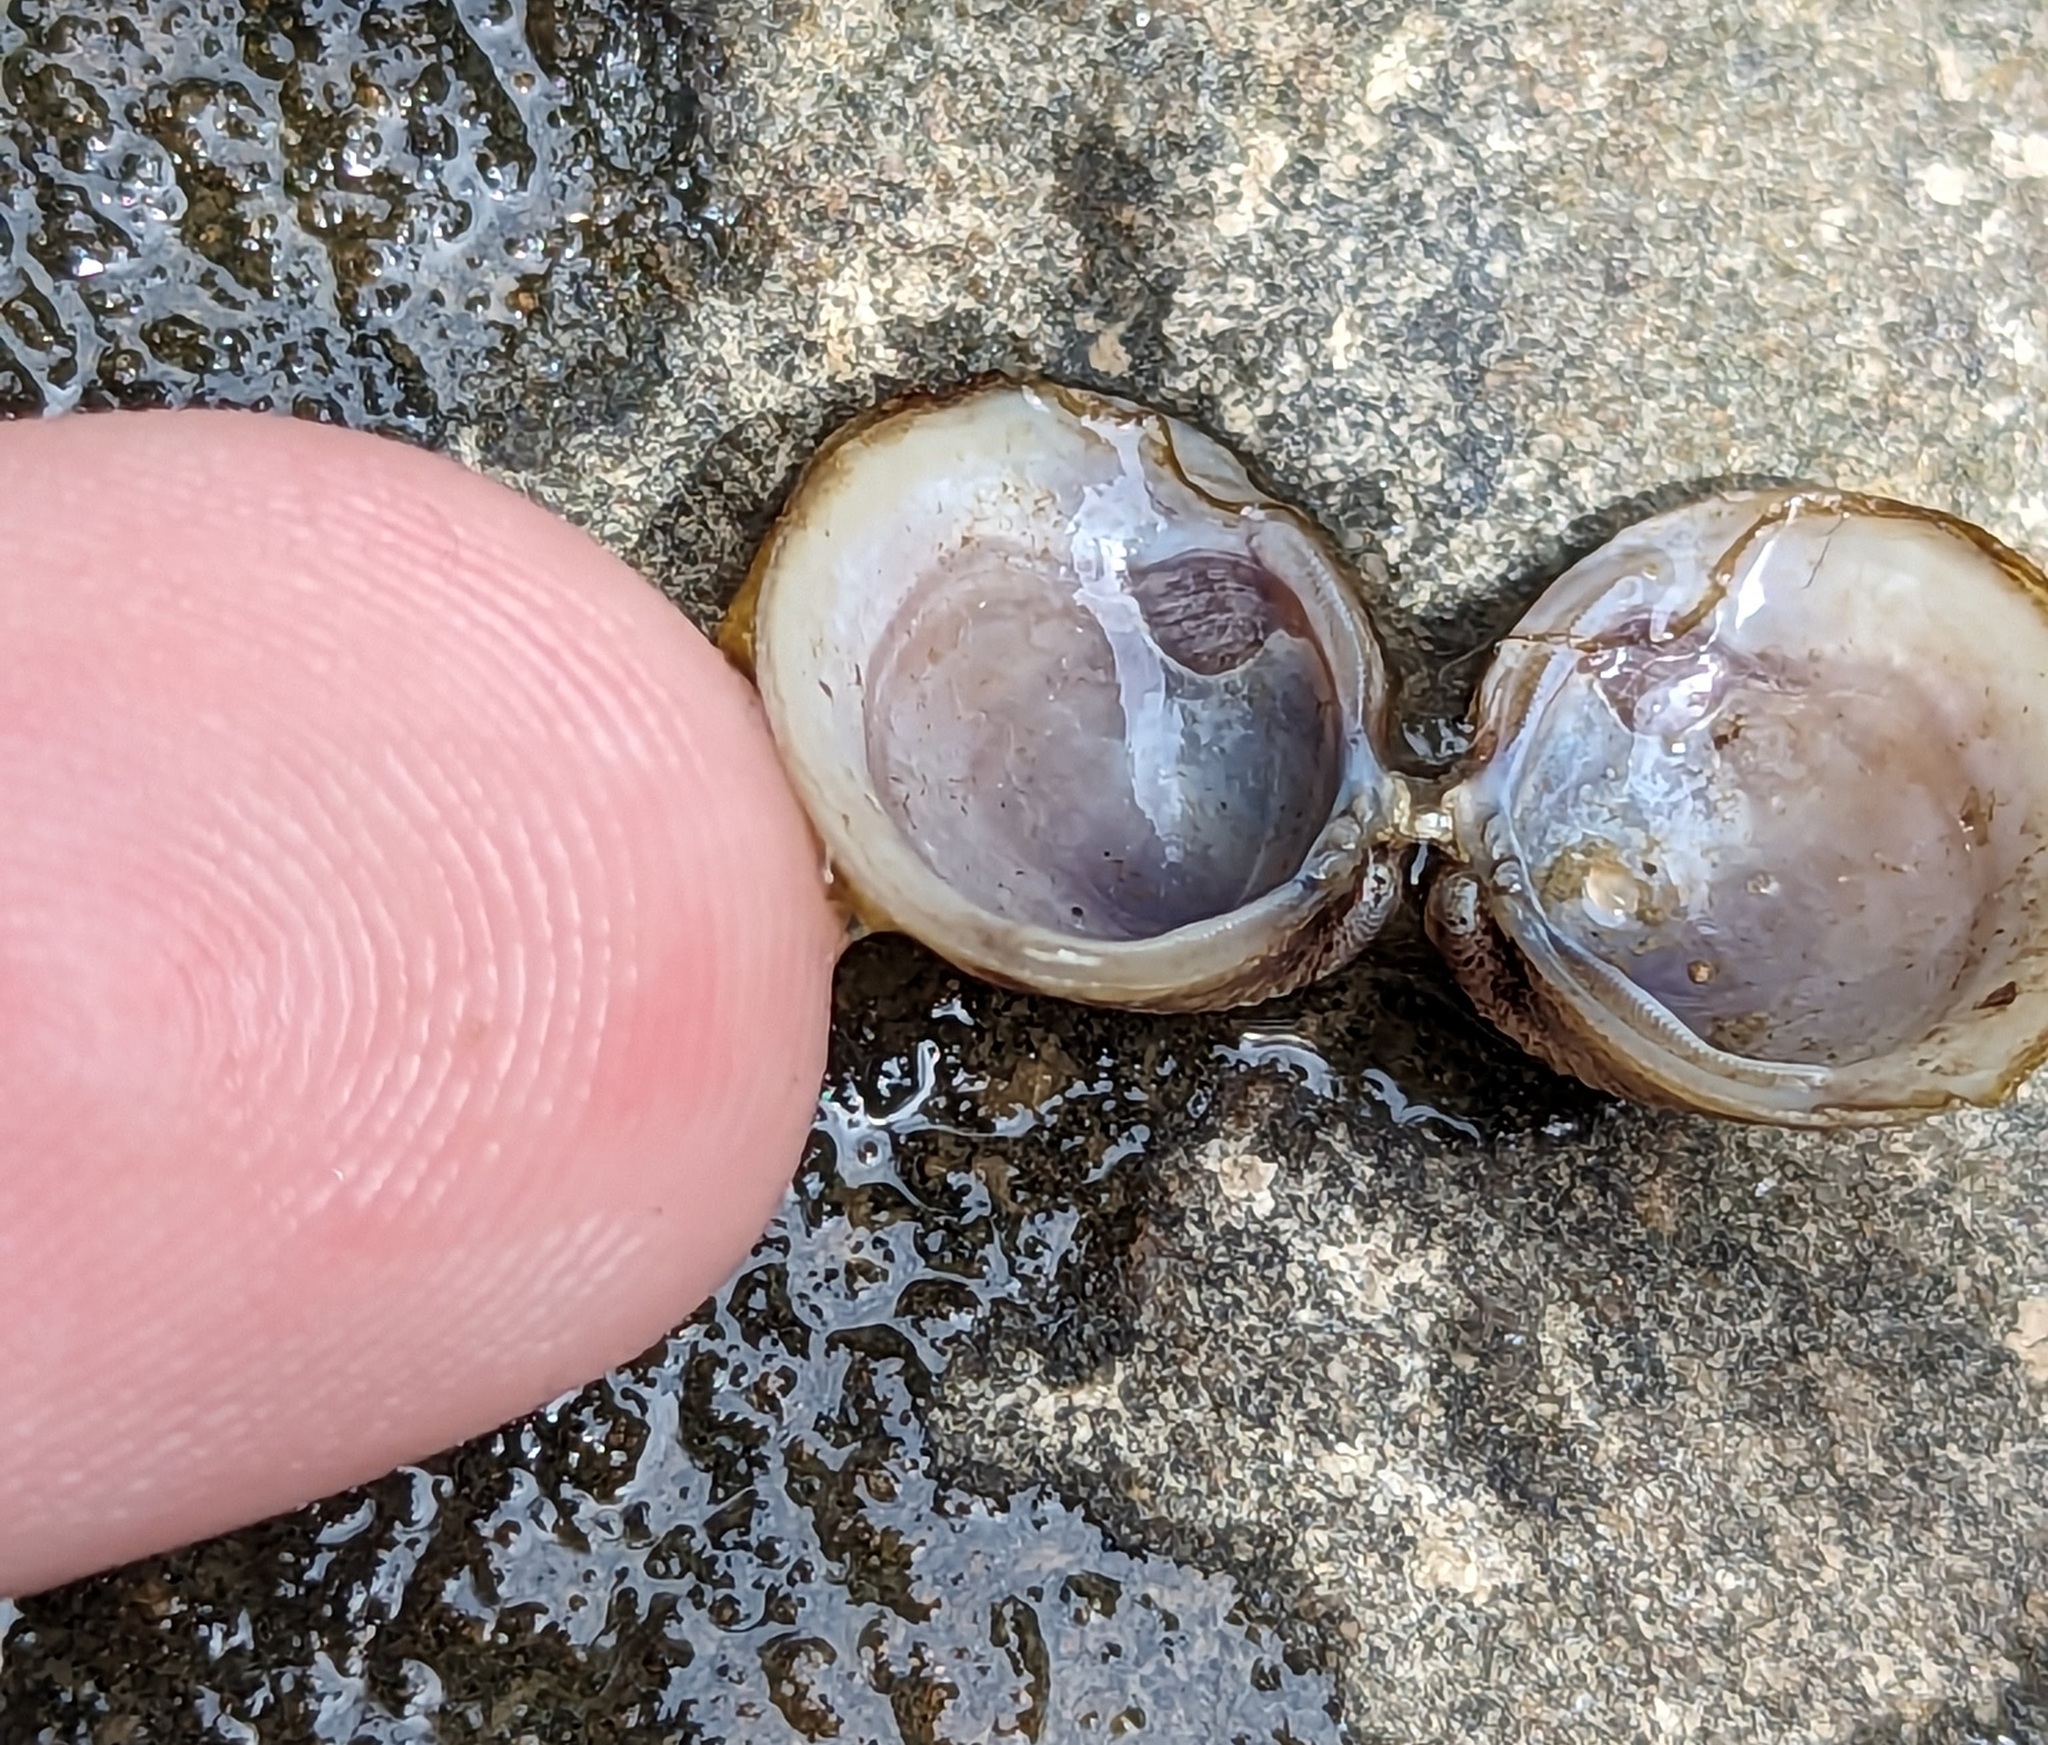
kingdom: Animalia
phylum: Mollusca
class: Bivalvia
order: Venerida
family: Cyrenidae
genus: Corbicula
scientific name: Corbicula fluminea
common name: Asian clam
